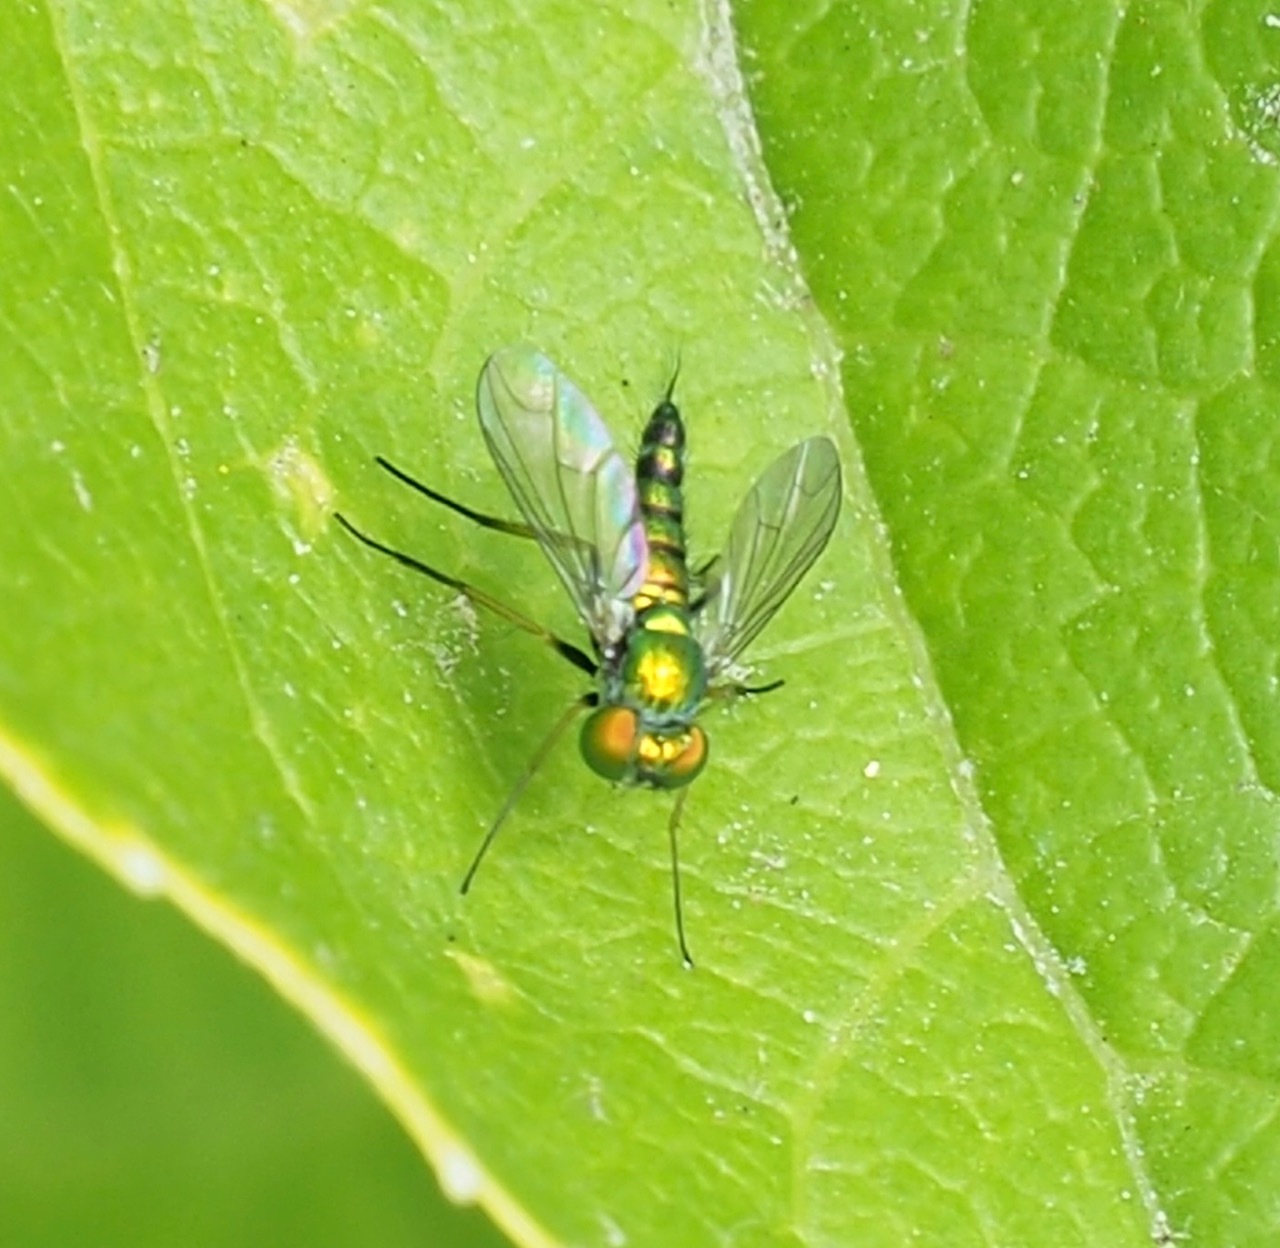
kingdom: Animalia
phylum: Arthropoda
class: Insecta
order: Diptera
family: Dolichopodidae
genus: Condylostylus
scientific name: Condylostylus caudatus
